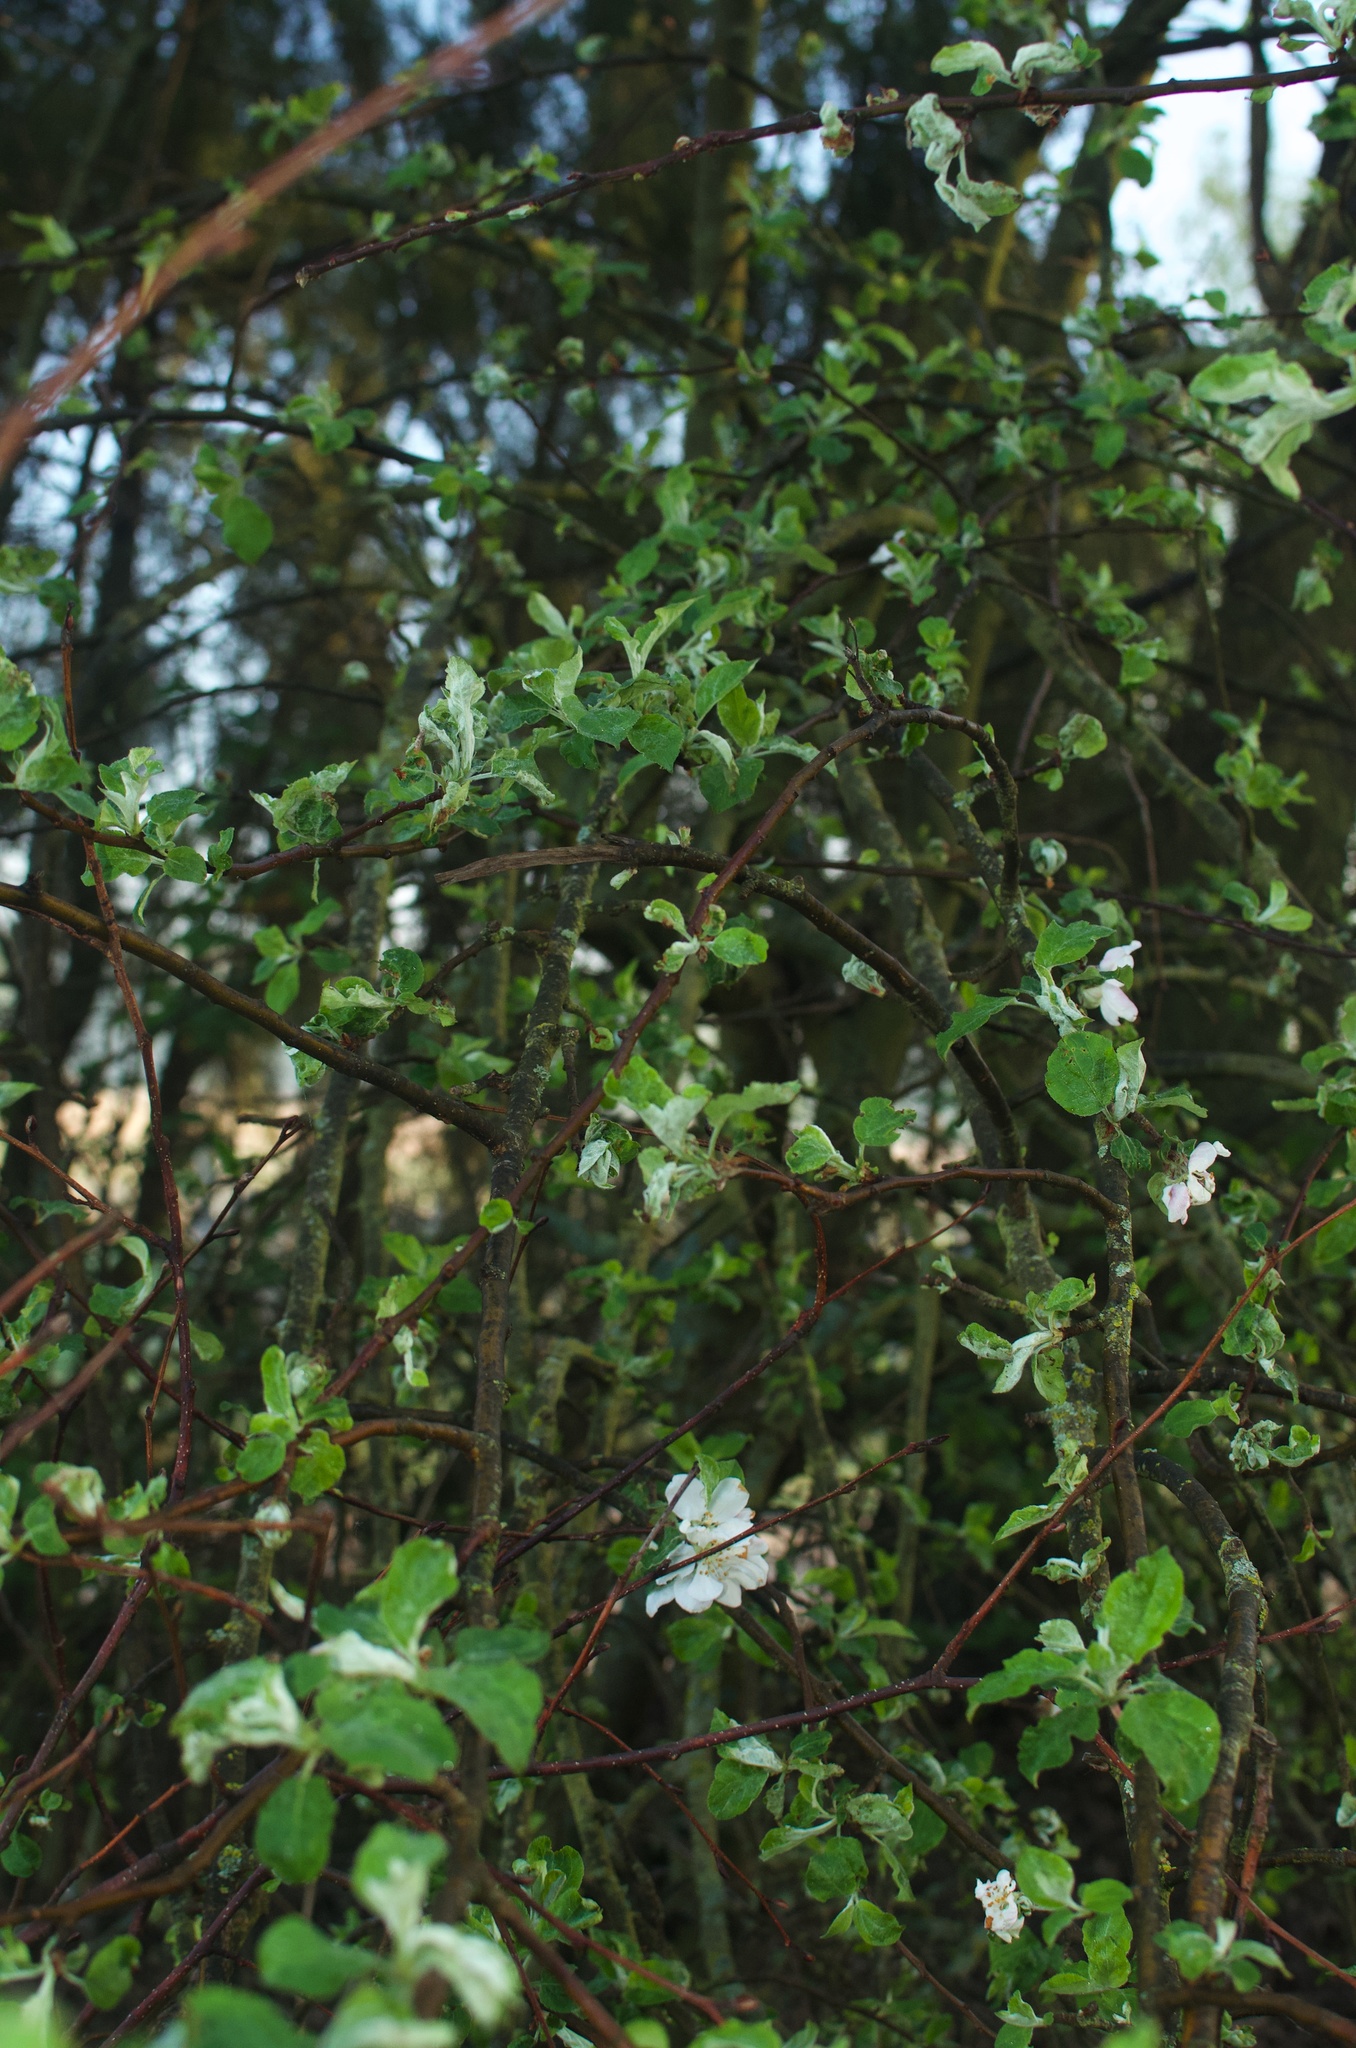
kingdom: Plantae
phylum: Tracheophyta
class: Magnoliopsida
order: Rosales
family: Rosaceae
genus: Malus
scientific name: Malus domestica
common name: Apple
